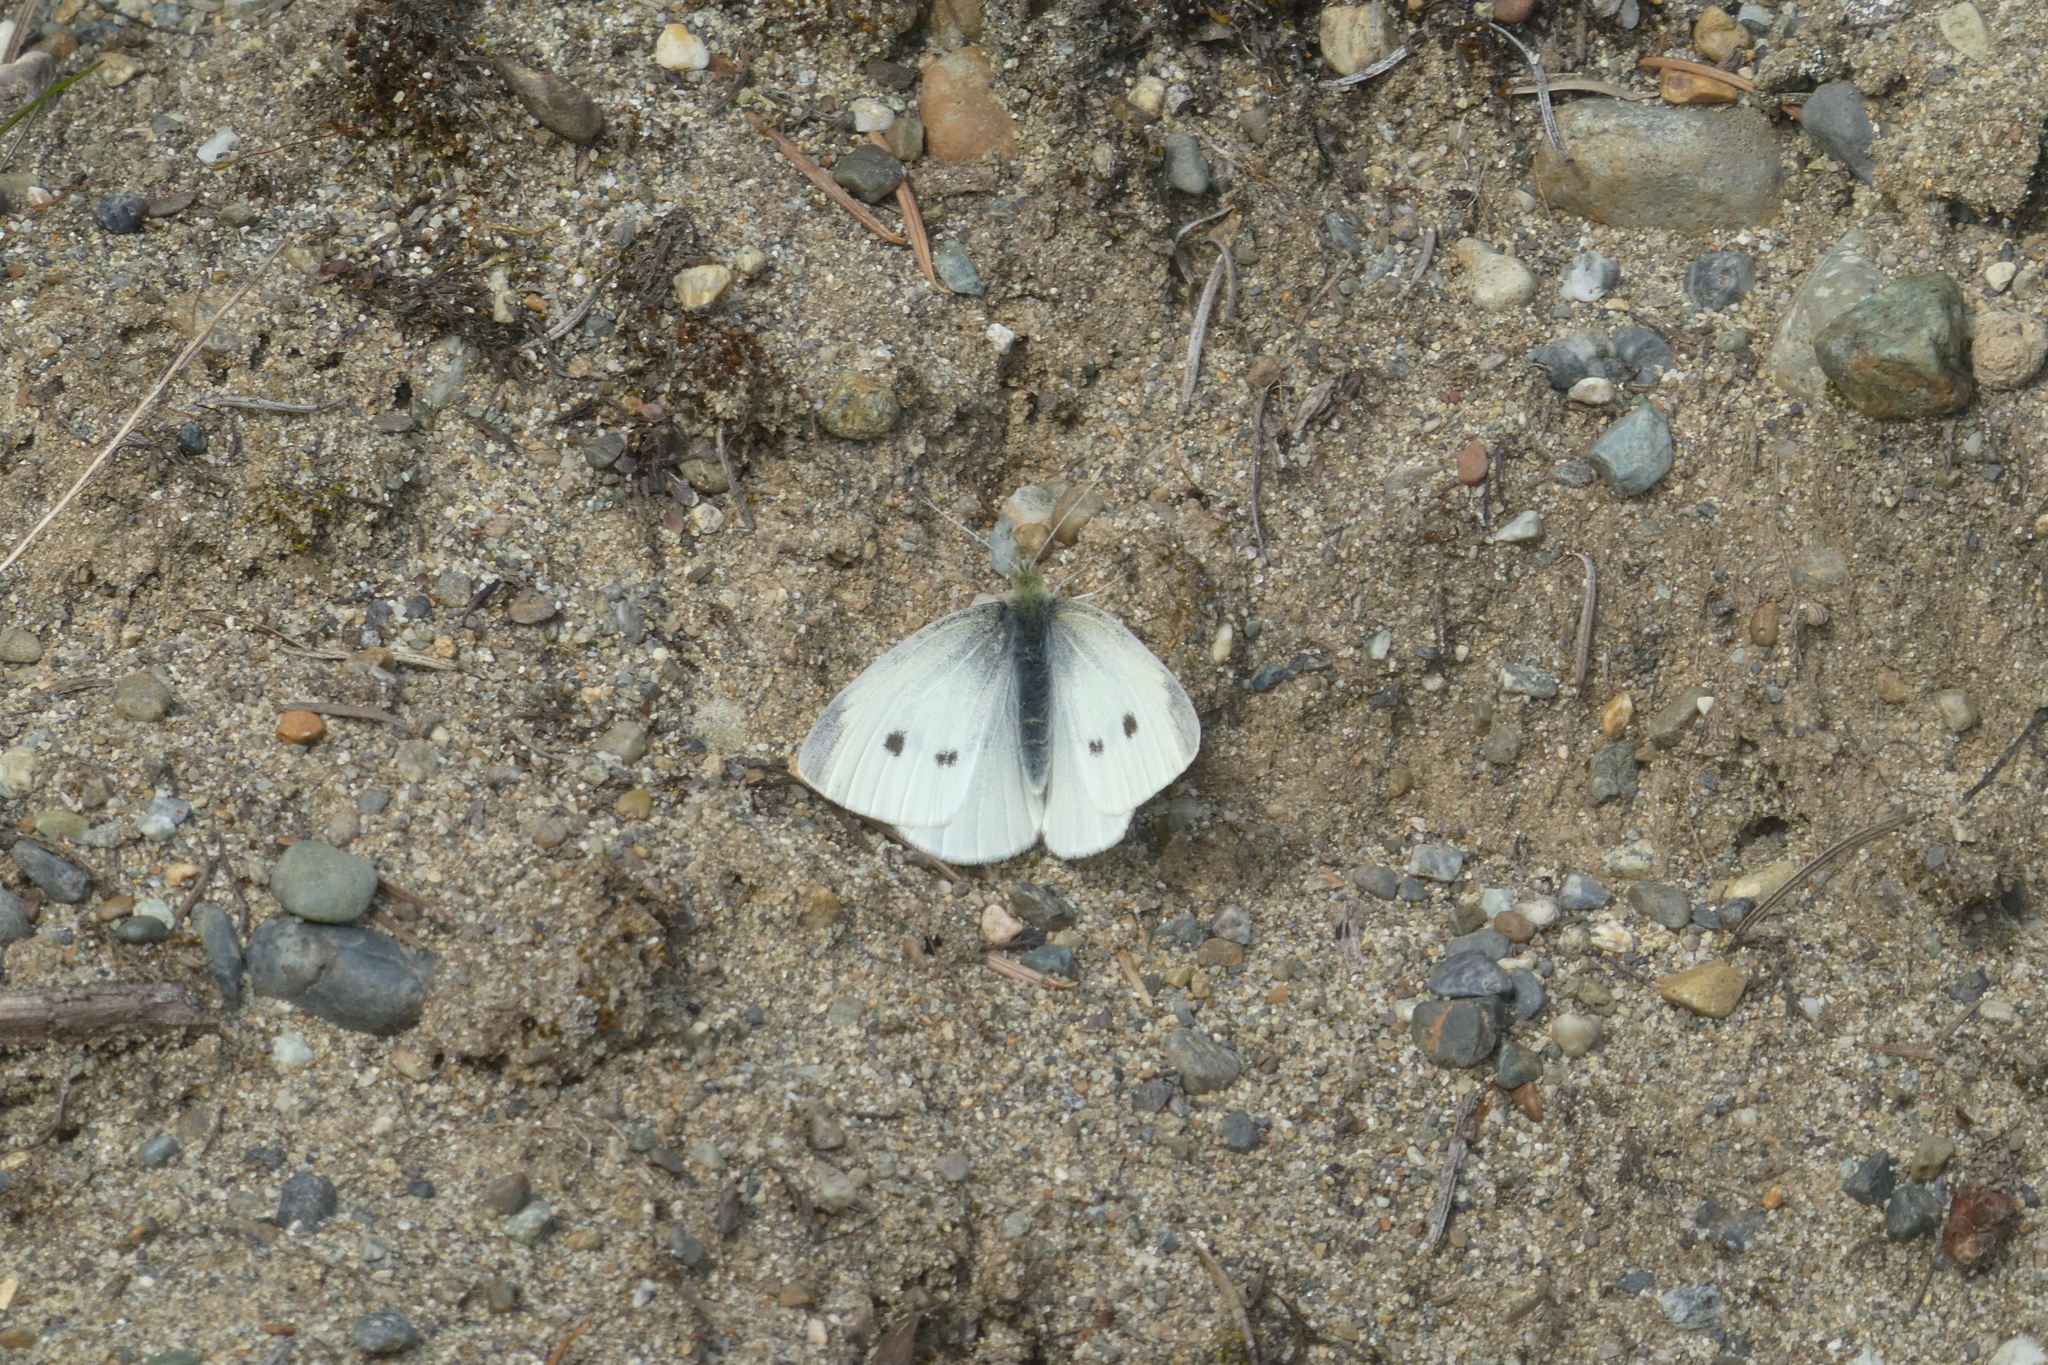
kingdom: Animalia
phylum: Arthropoda
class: Insecta
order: Lepidoptera
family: Pieridae
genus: Pieris
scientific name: Pieris rapae
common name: Small white
